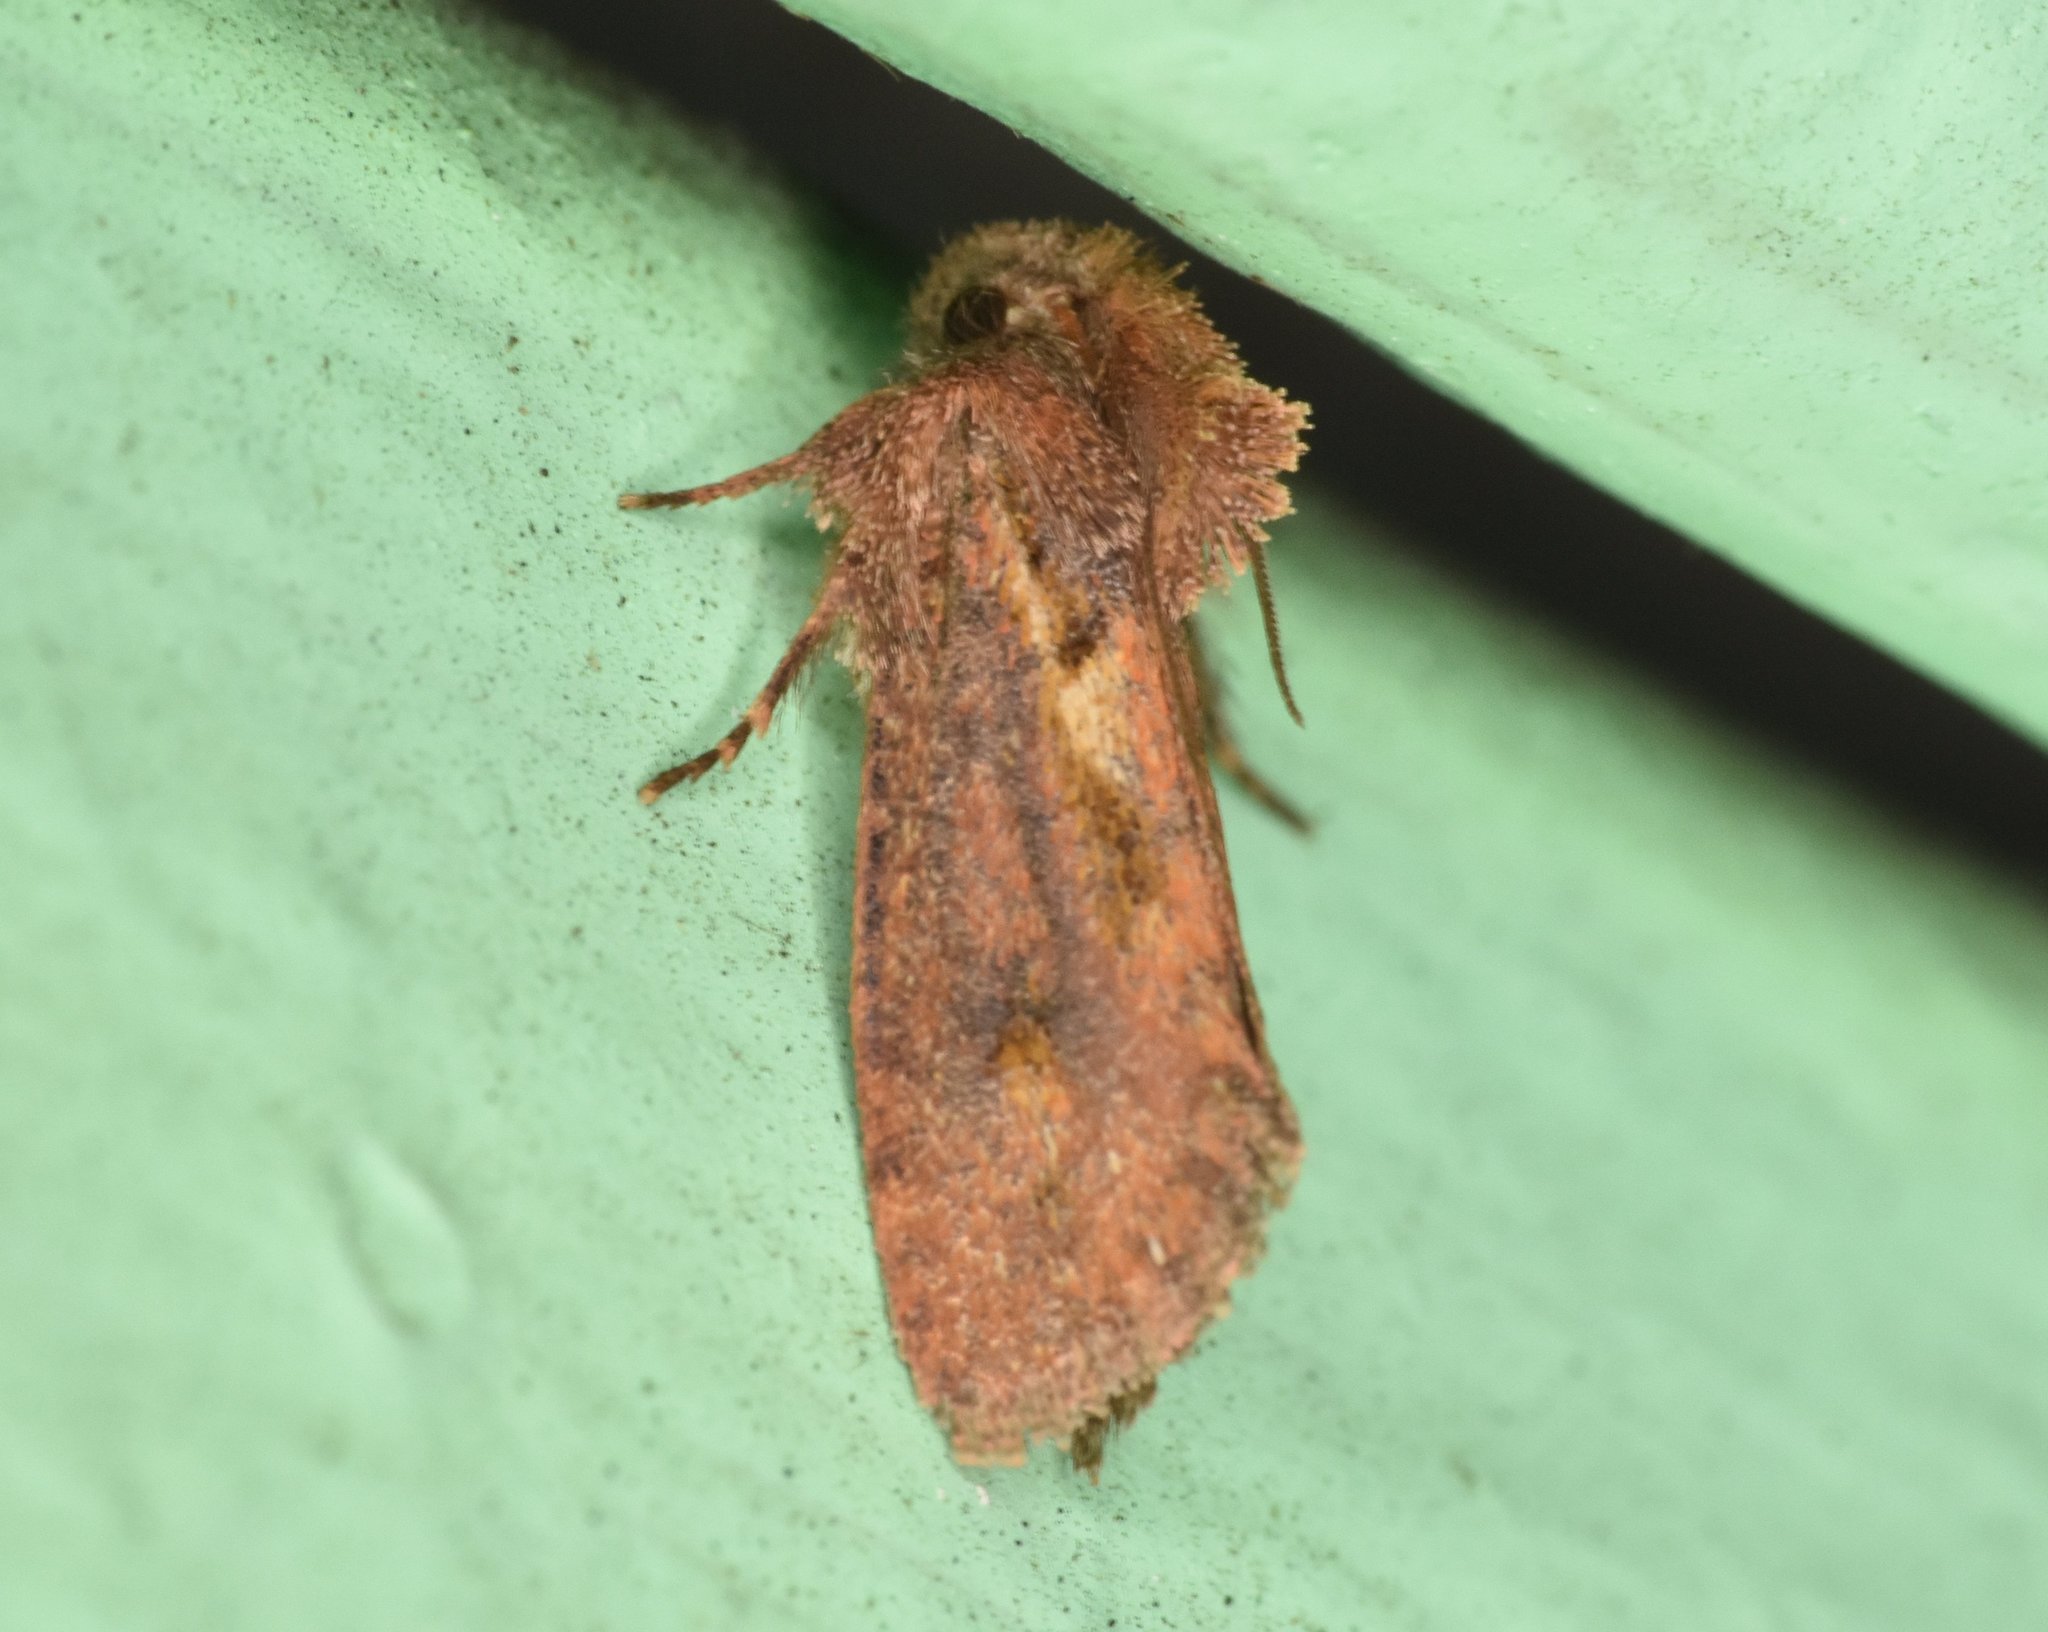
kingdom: Animalia
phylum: Arthropoda
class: Insecta
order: Lepidoptera
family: Tineidae
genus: Acrolophus
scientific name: Acrolophus walsinghami
